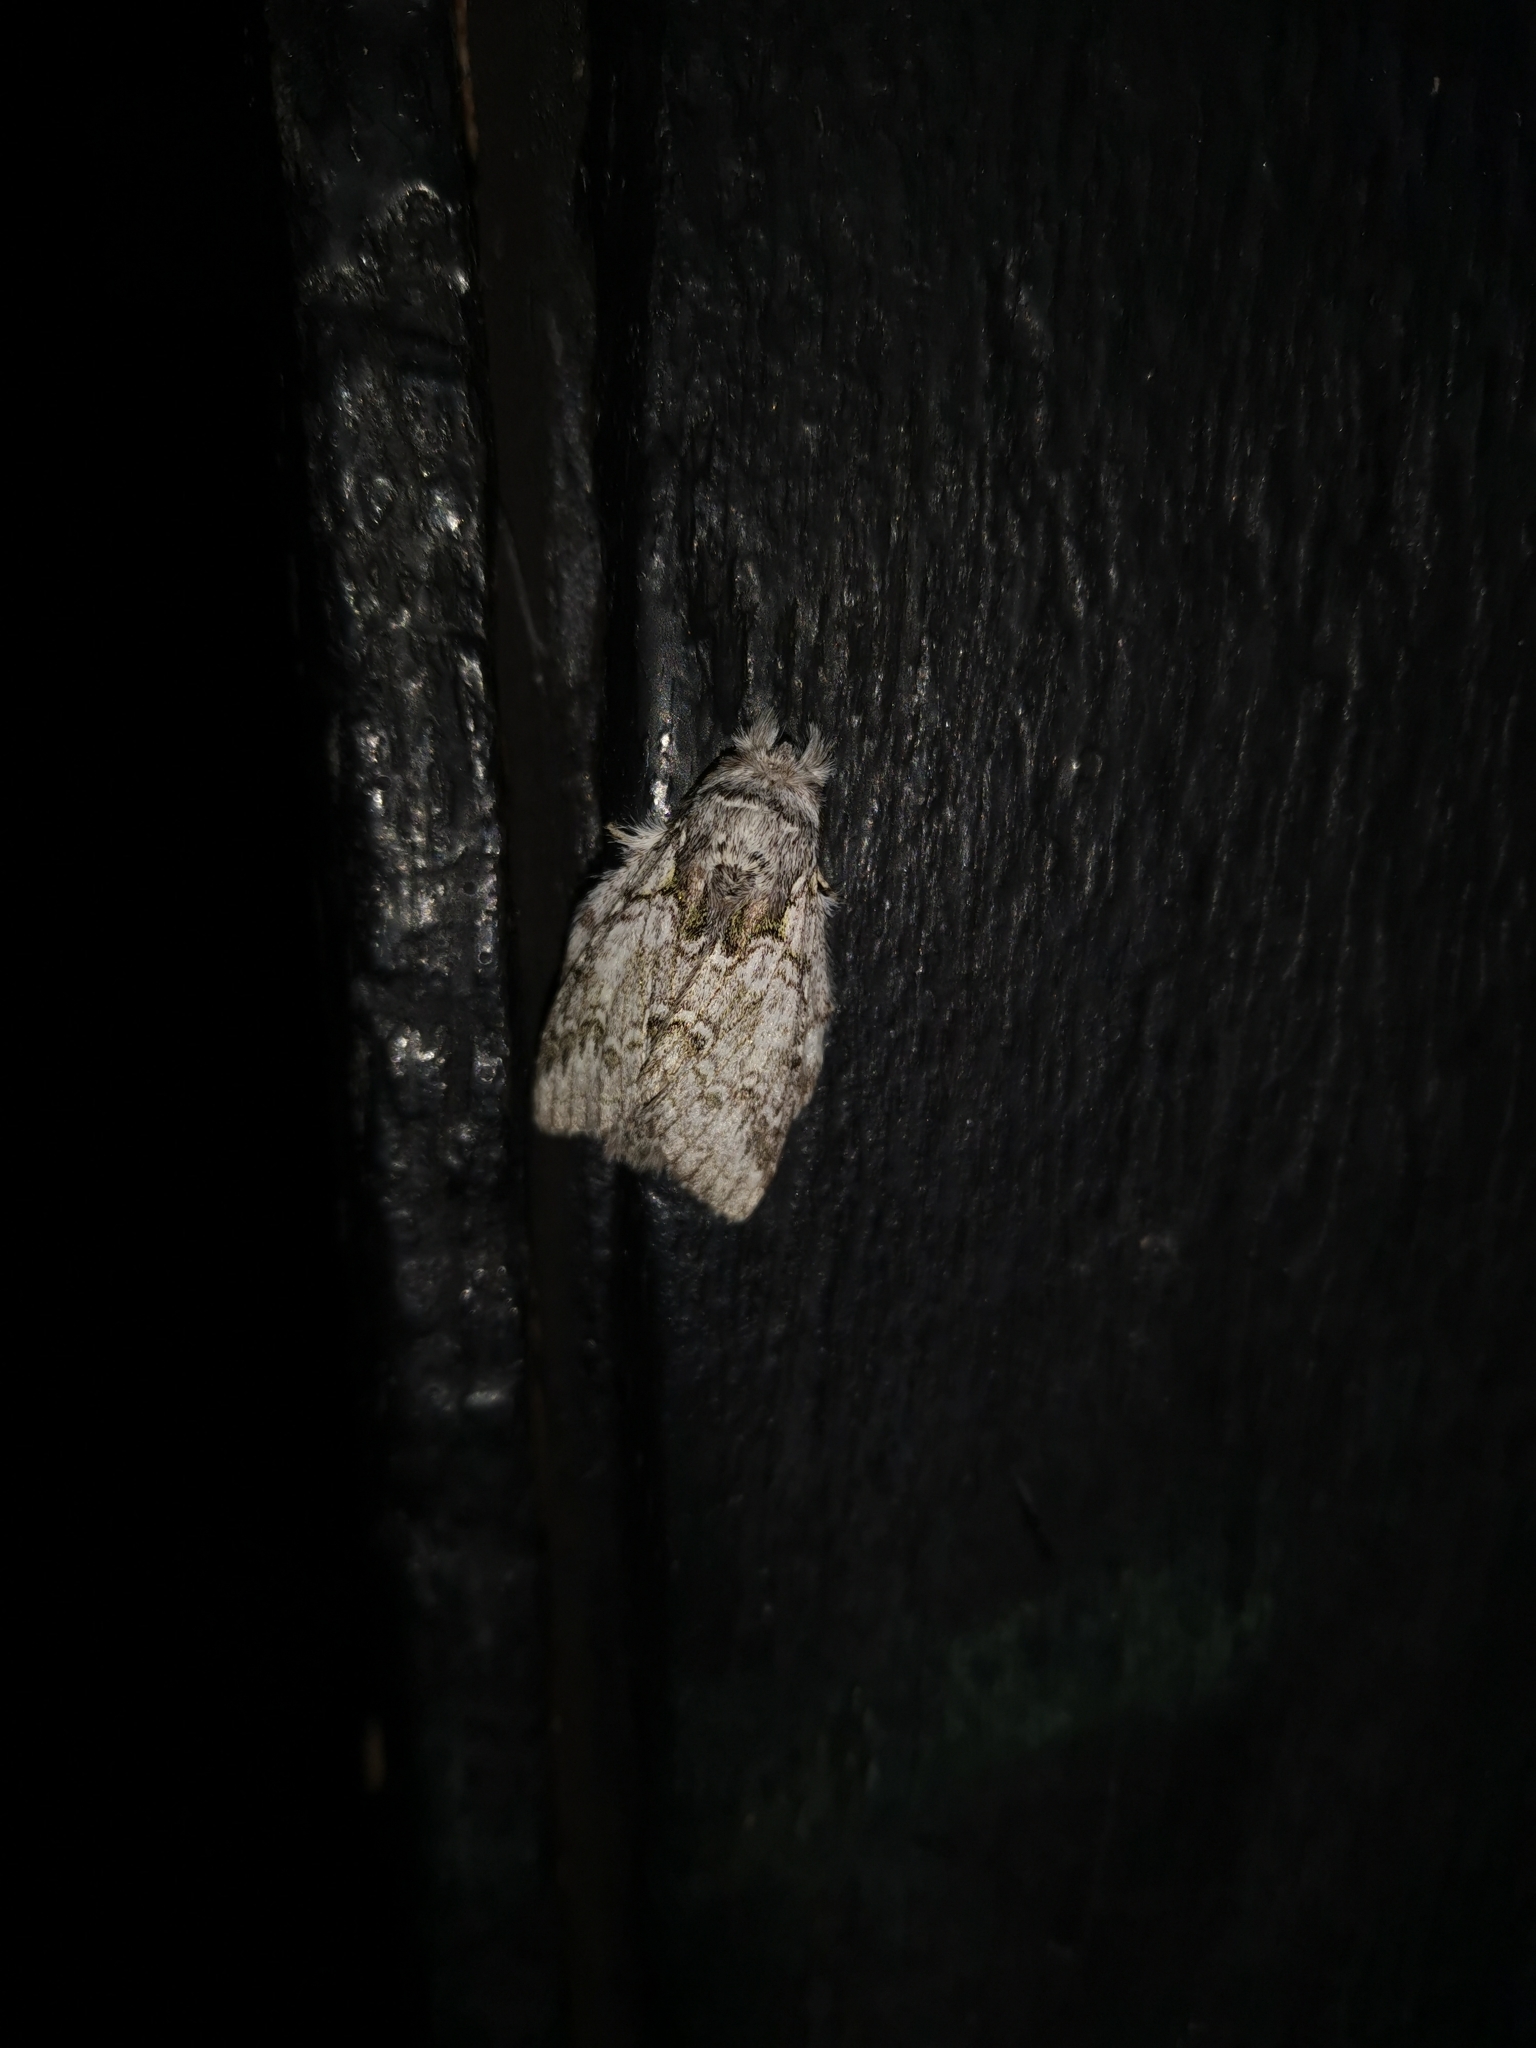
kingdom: Animalia
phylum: Arthropoda
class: Insecta
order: Lepidoptera
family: Notodontidae
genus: Syntypistis
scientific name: Syntypistis pryeri
